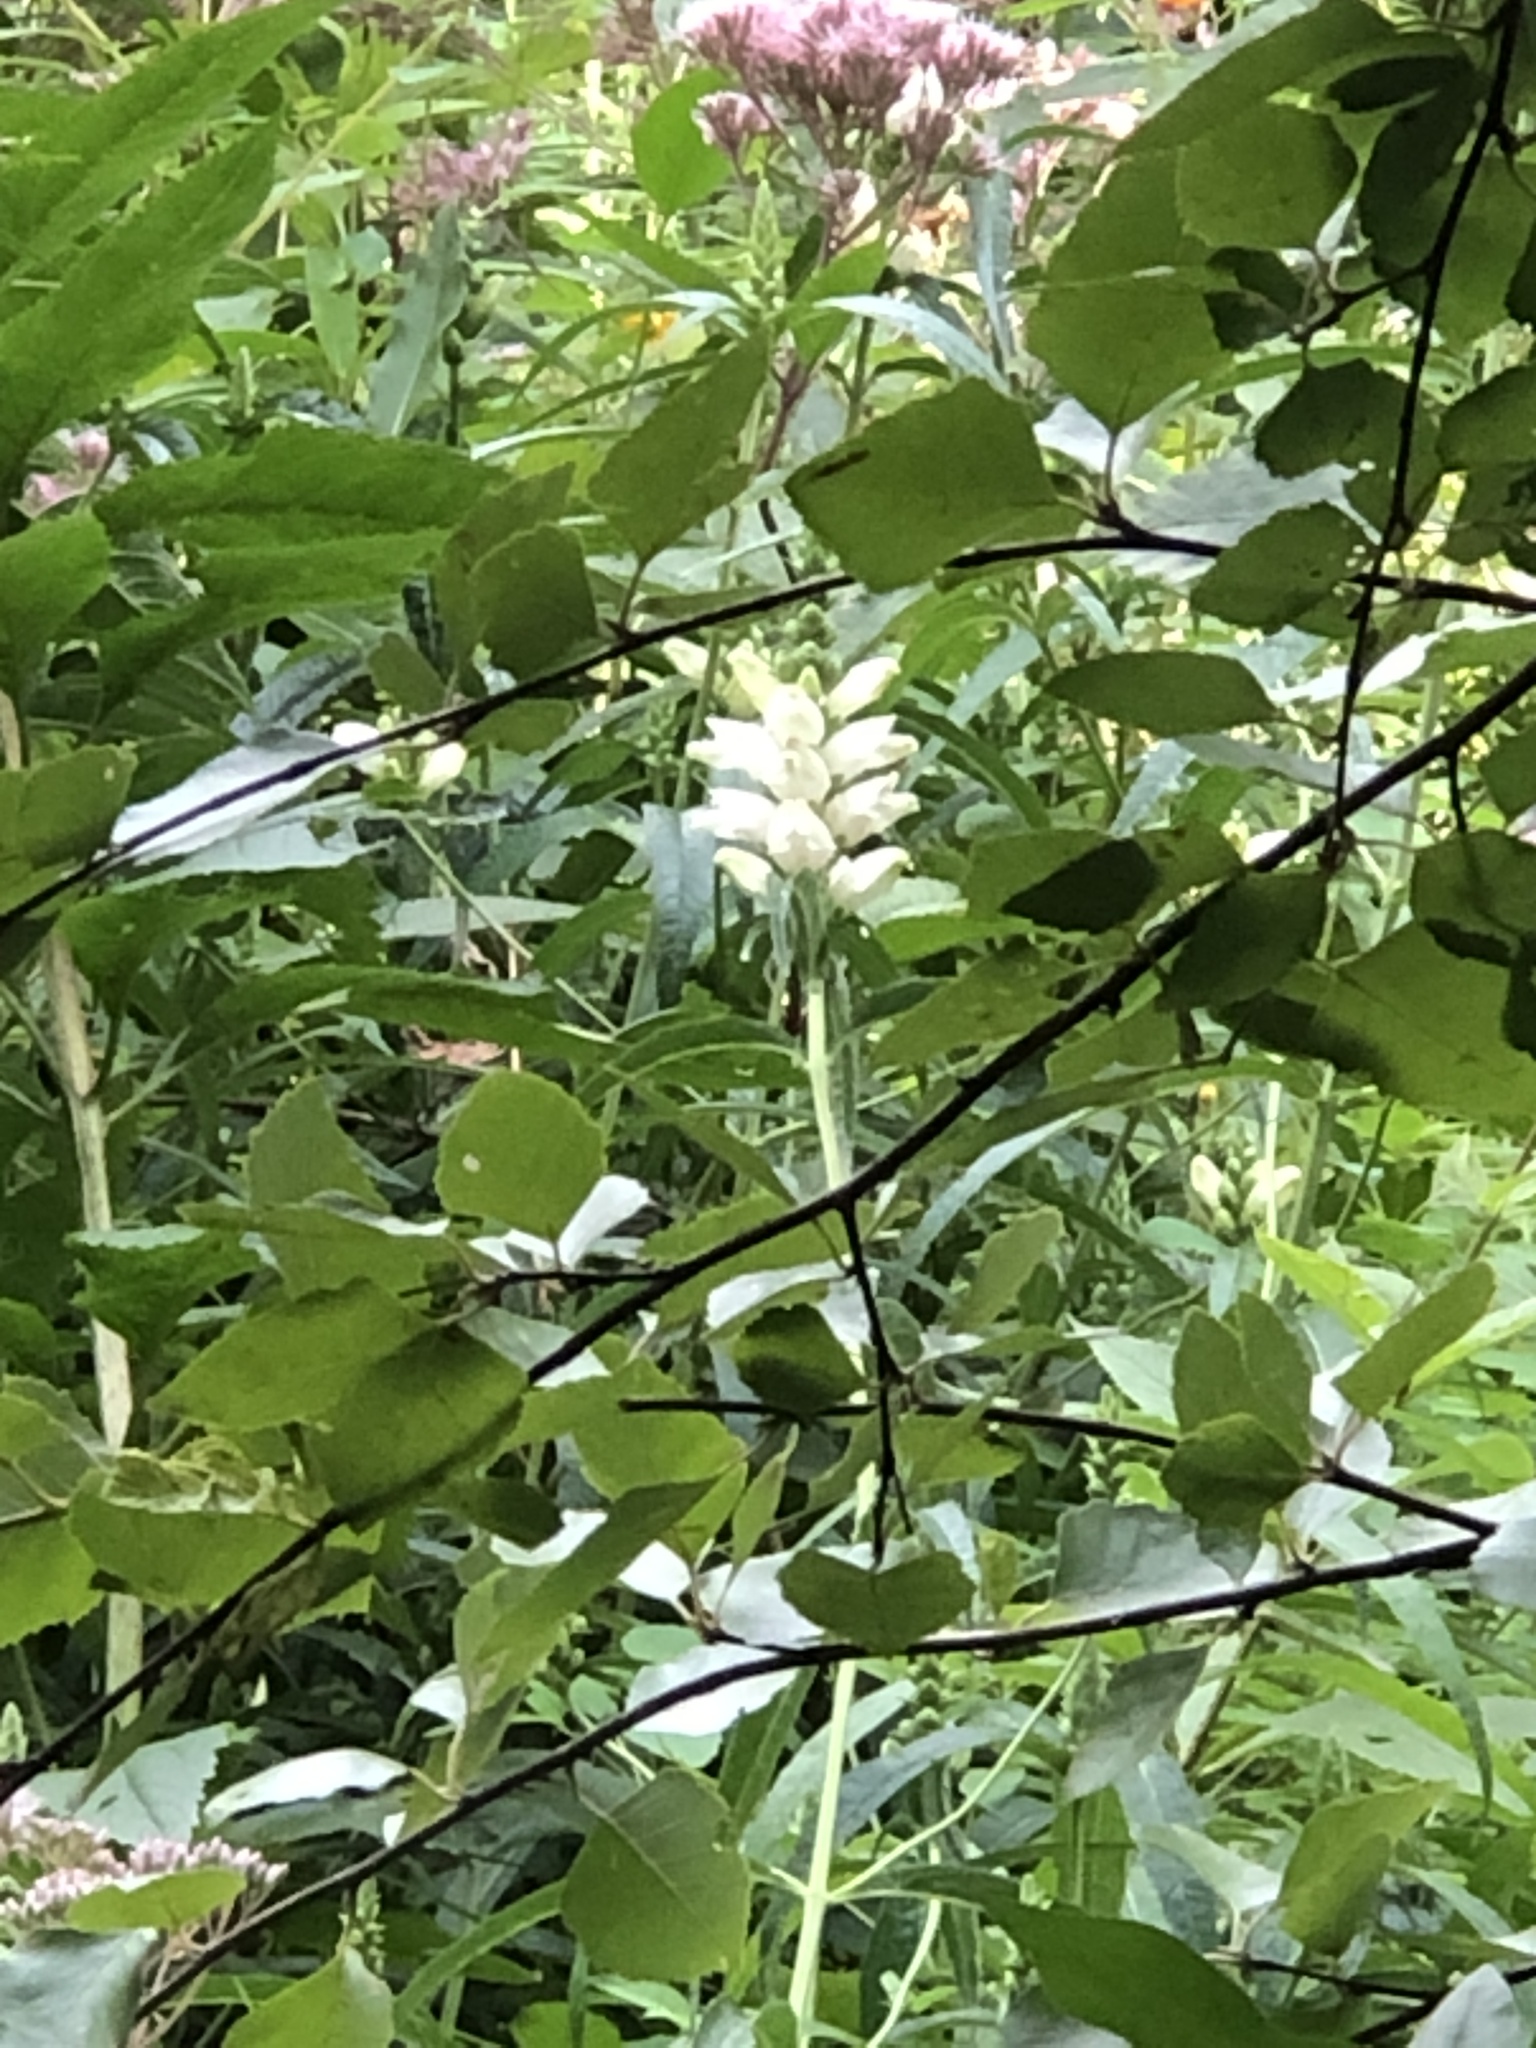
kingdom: Plantae
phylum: Tracheophyta
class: Magnoliopsida
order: Lamiales
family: Plantaginaceae
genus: Chelone
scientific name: Chelone glabra
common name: Snakehead
